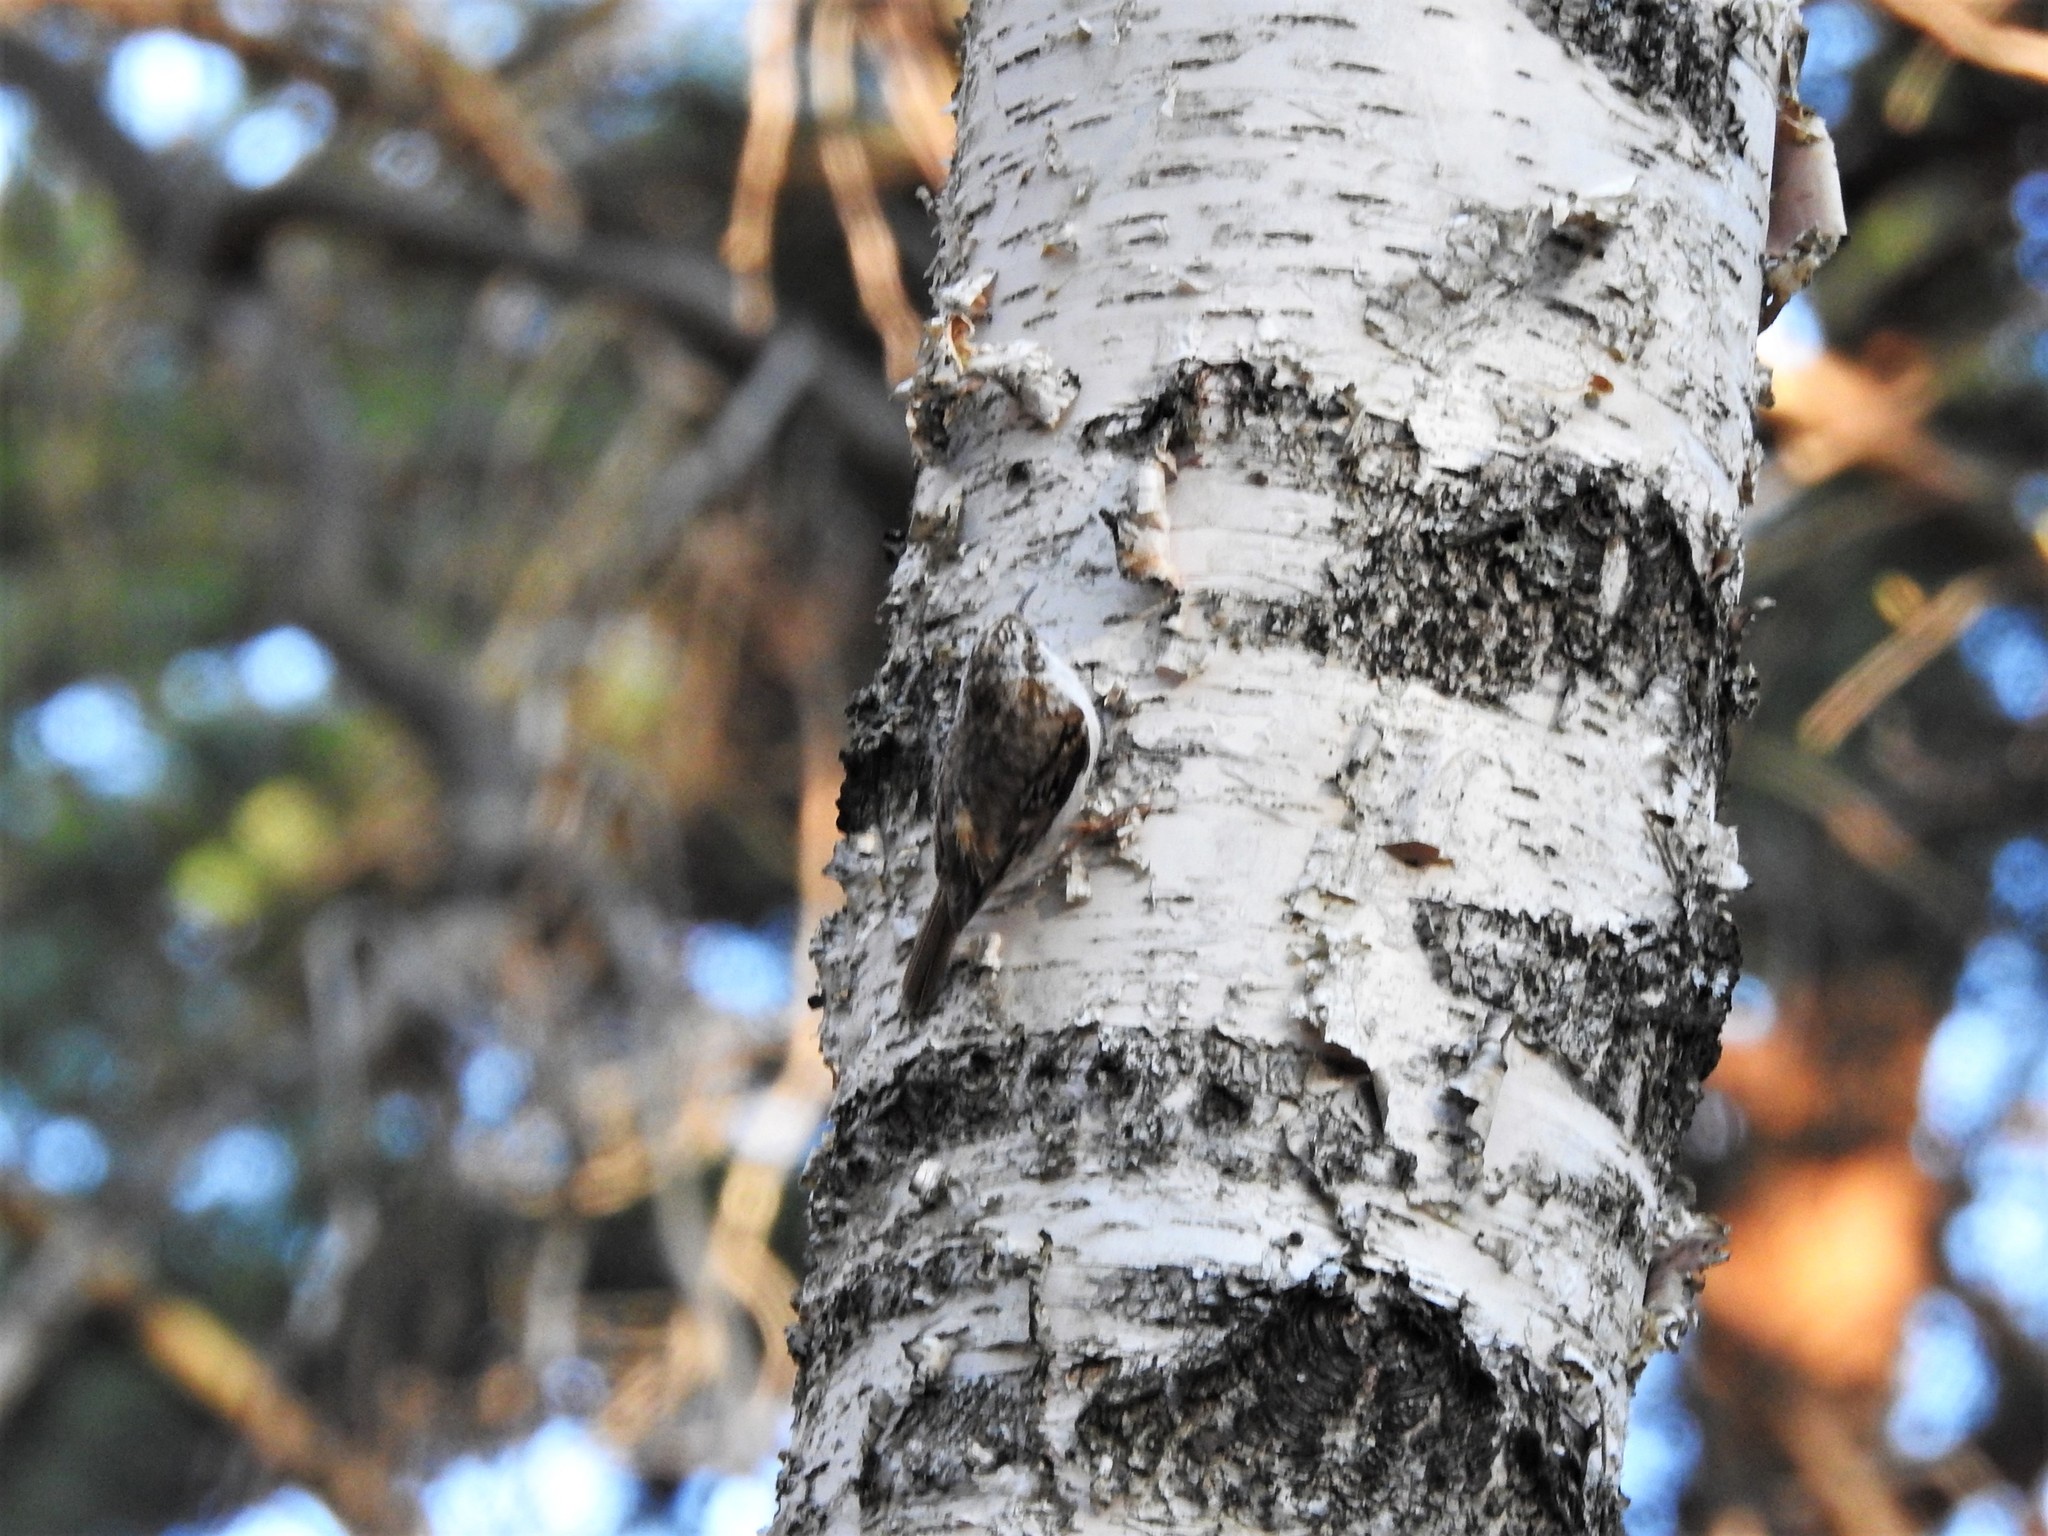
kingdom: Animalia
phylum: Chordata
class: Aves
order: Passeriformes
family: Certhiidae
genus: Certhia
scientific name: Certhia familiaris
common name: Eurasian treecreeper
